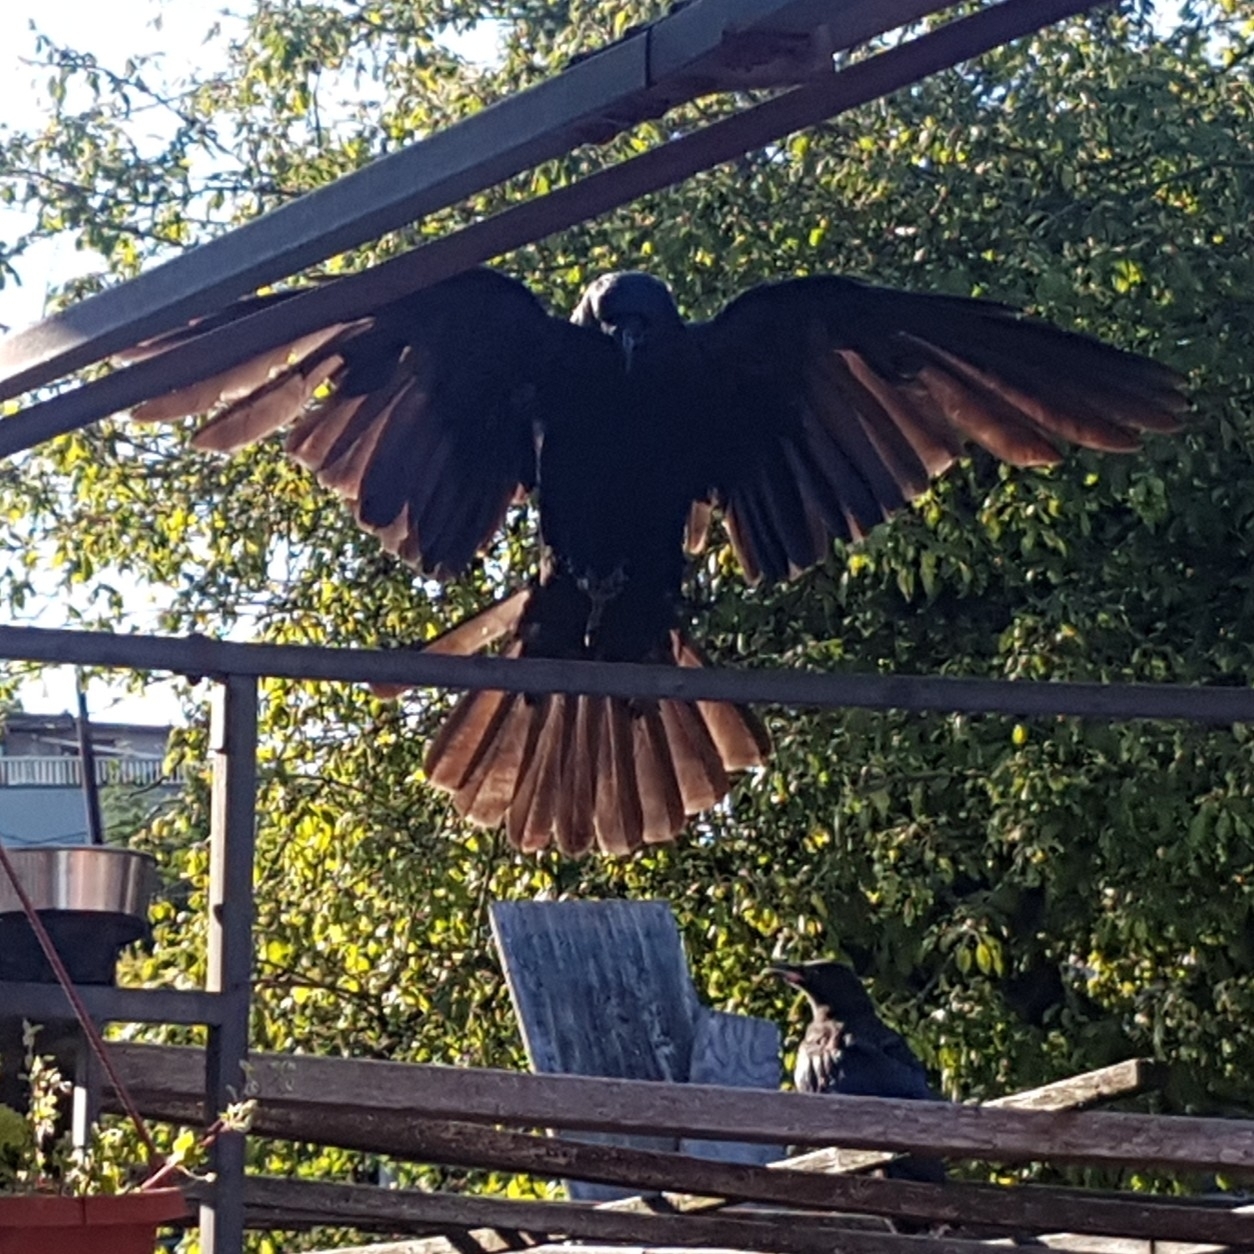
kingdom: Animalia
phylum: Chordata
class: Aves
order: Passeriformes
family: Corvidae
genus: Corvus
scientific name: Corvus brachyrhynchos
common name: American crow
